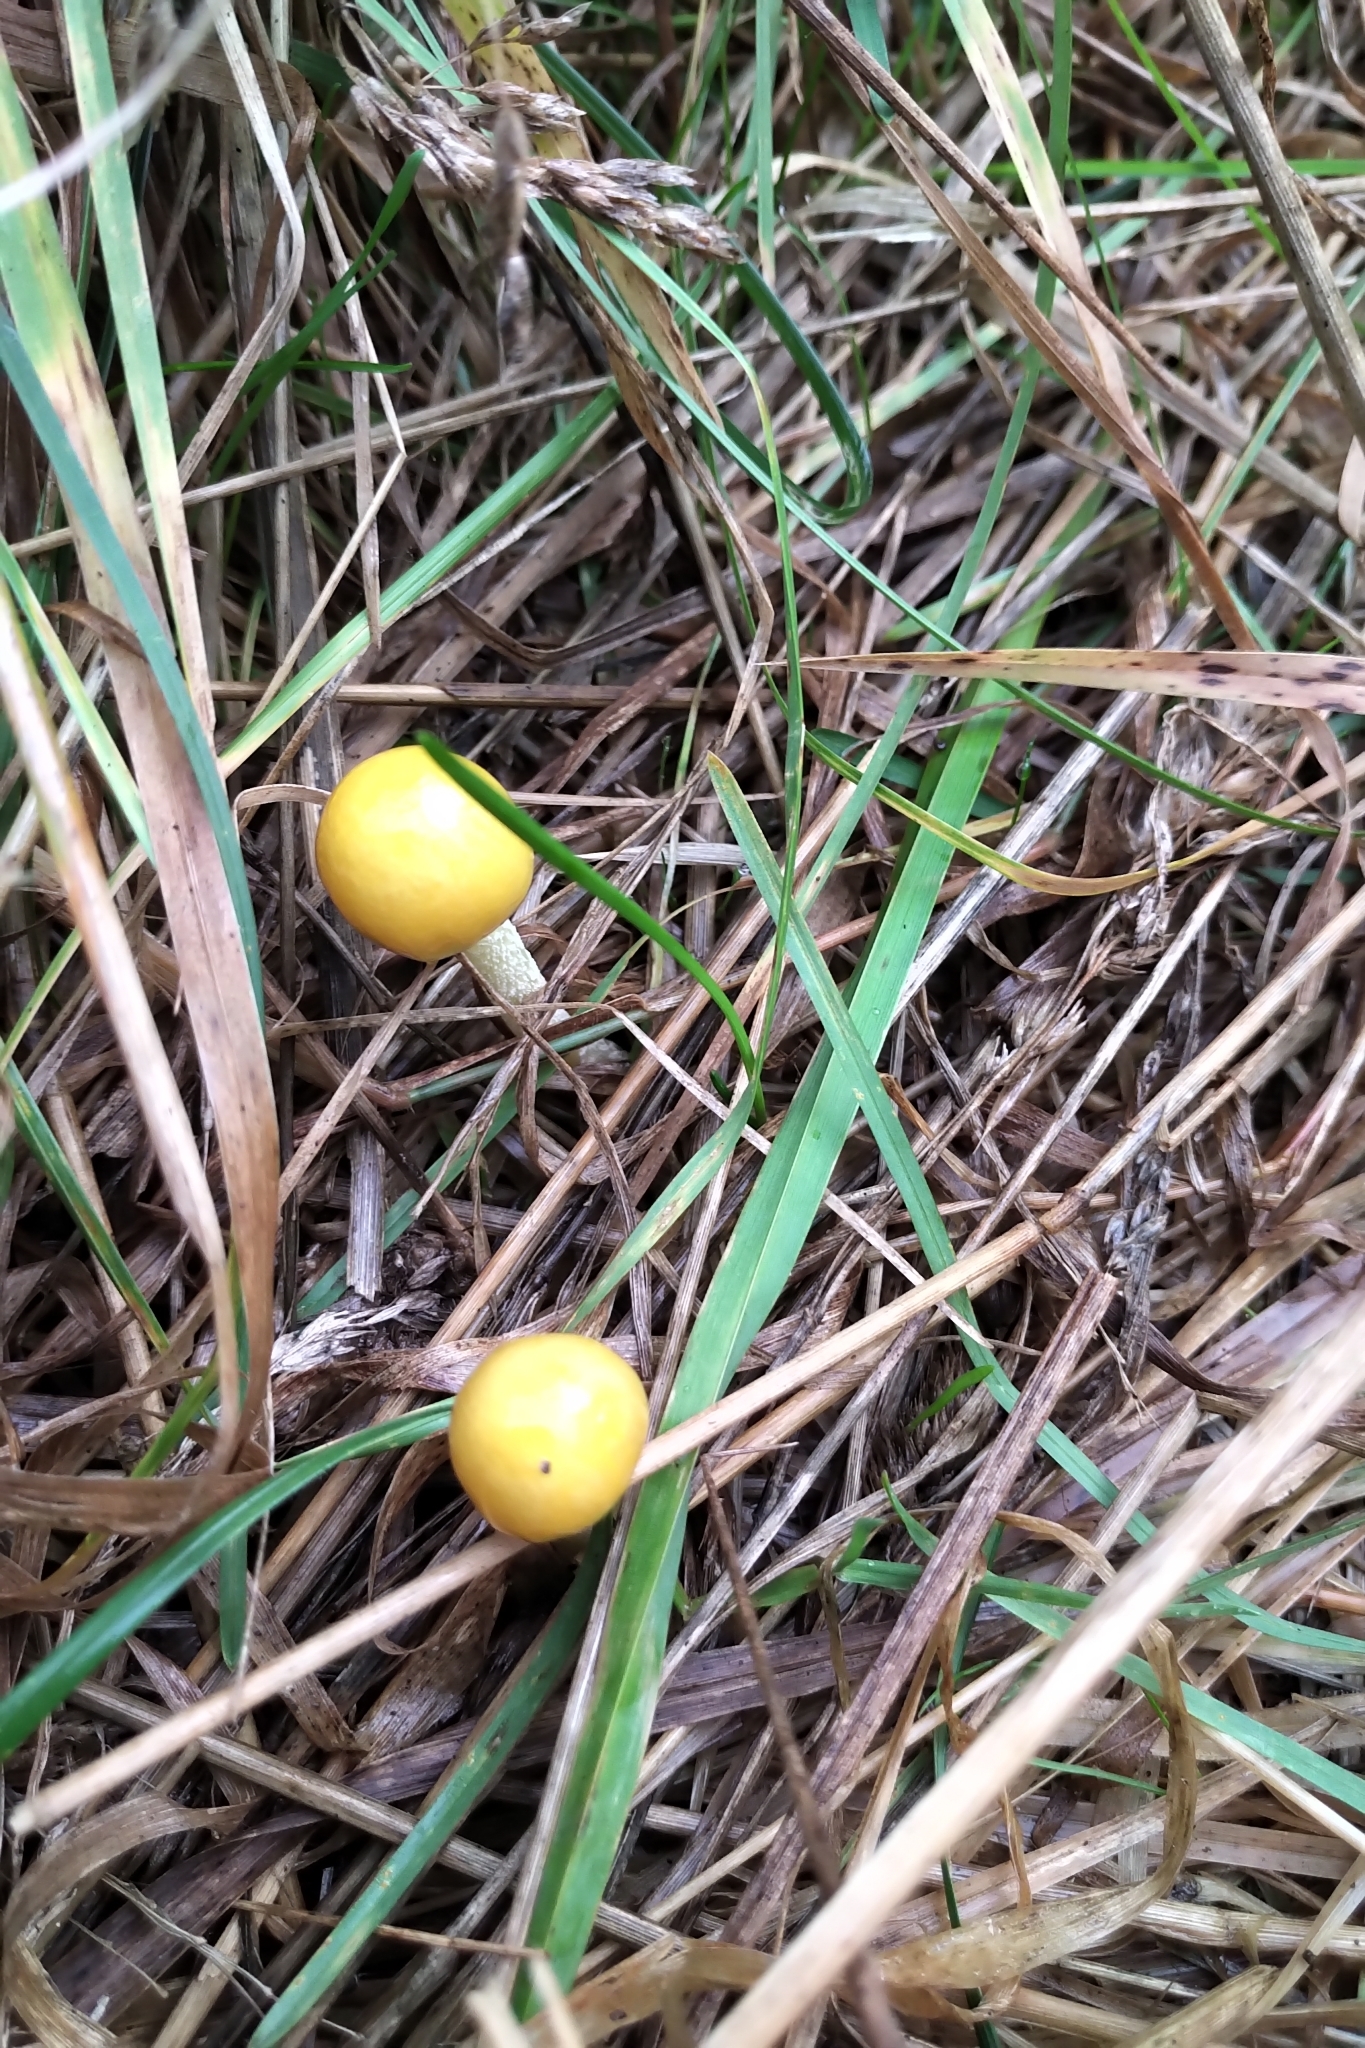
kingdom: Fungi
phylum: Basidiomycota
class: Agaricomycetes
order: Agaricales
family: Bolbitiaceae
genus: Bolbitius
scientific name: Bolbitius titubans
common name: Yellow fieldcap
